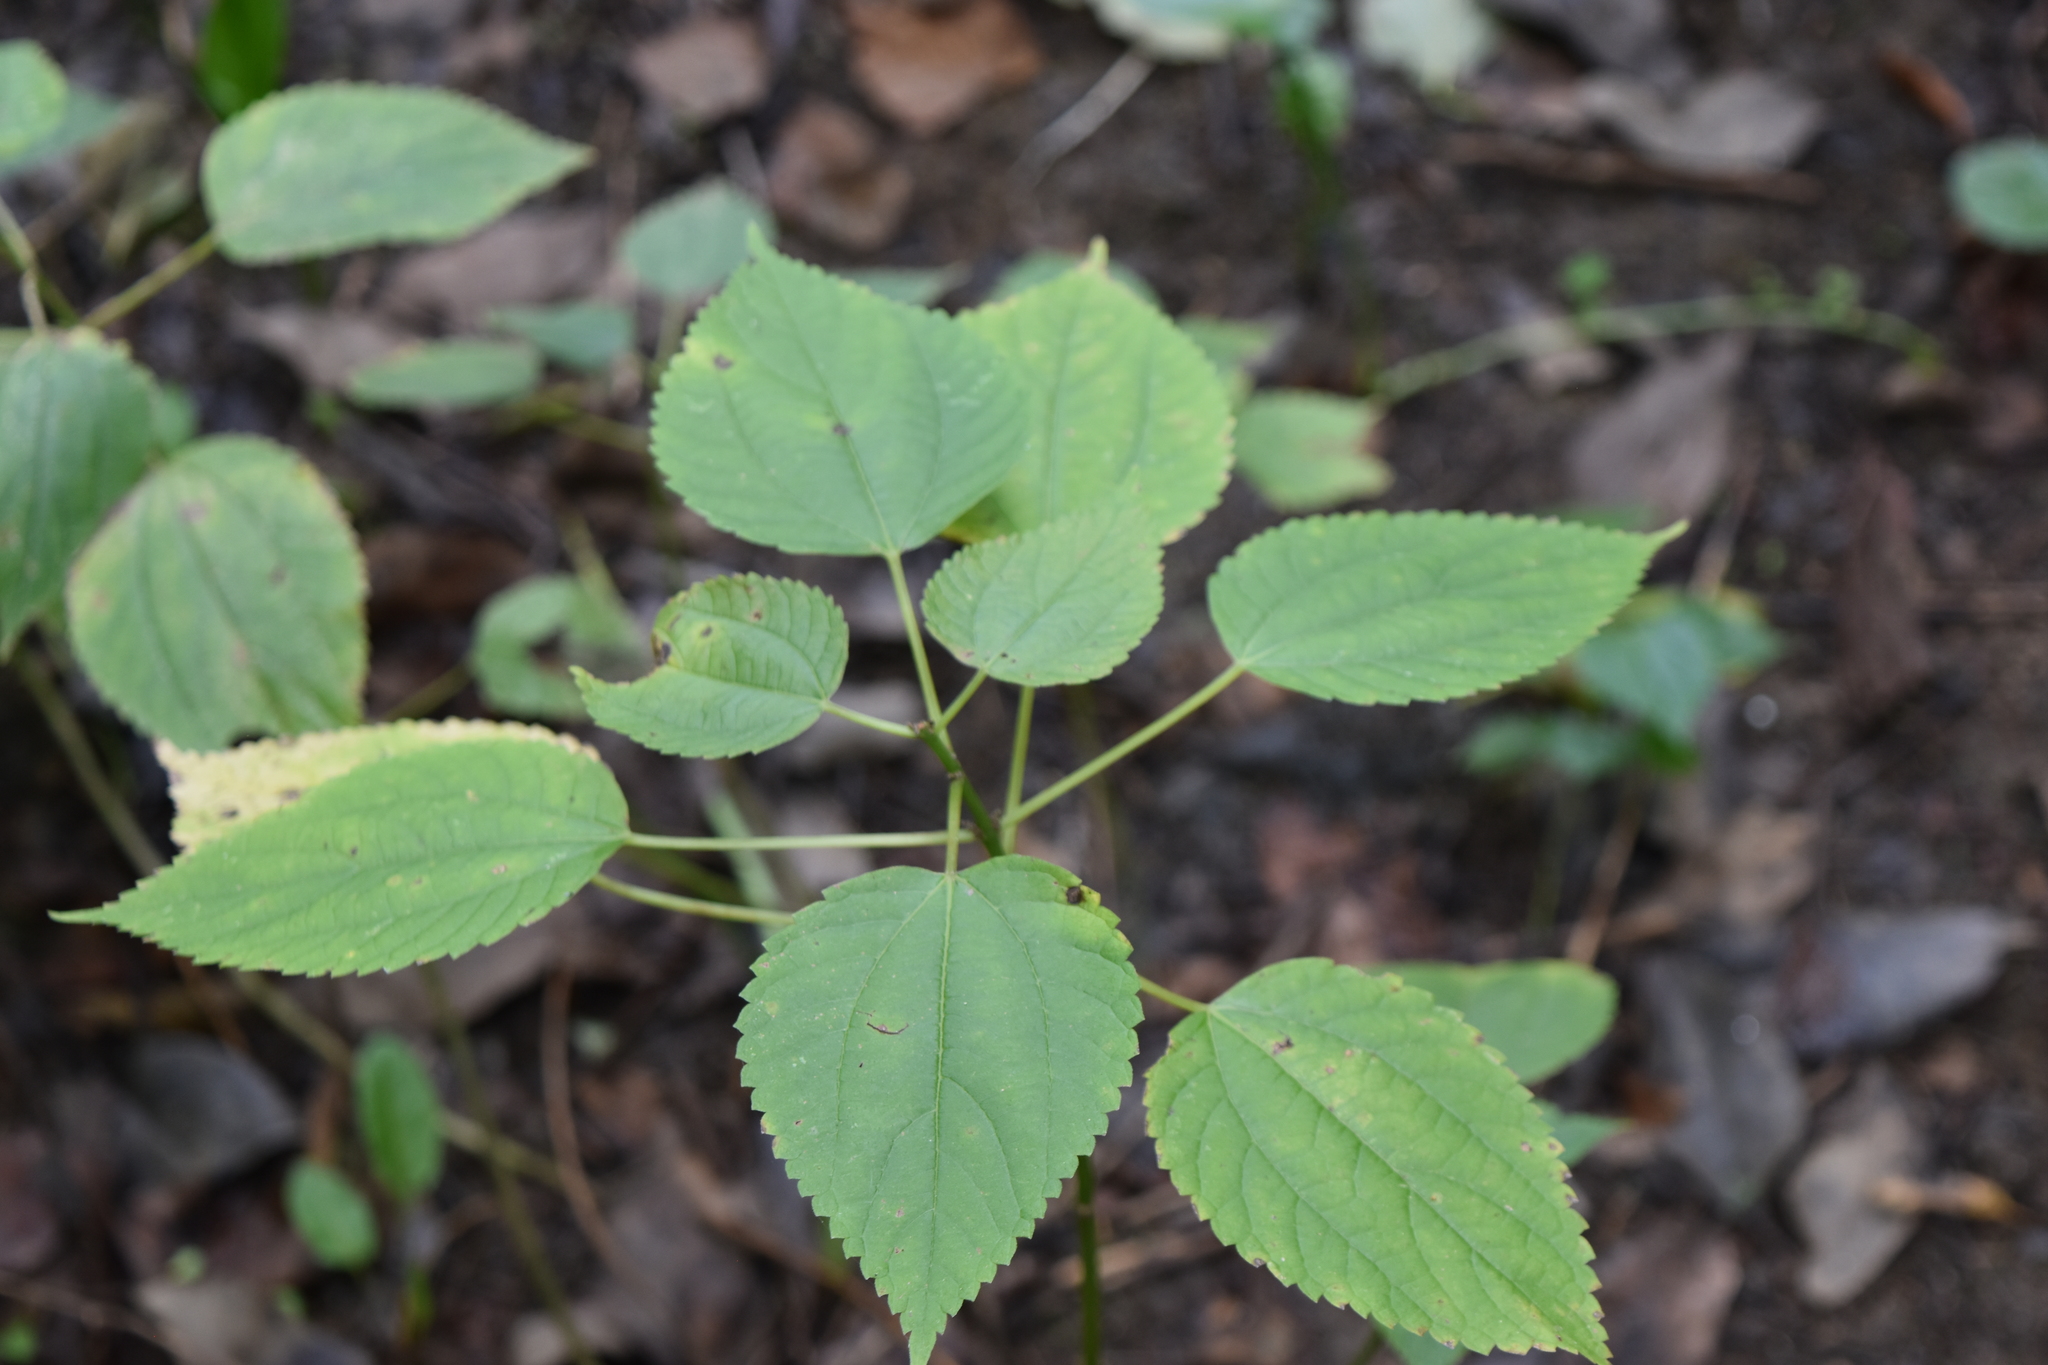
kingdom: Plantae
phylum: Tracheophyta
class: Magnoliopsida
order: Rosales
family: Urticaceae
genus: Boehmeria
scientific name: Boehmeria cylindrica
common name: Bog-hemp
